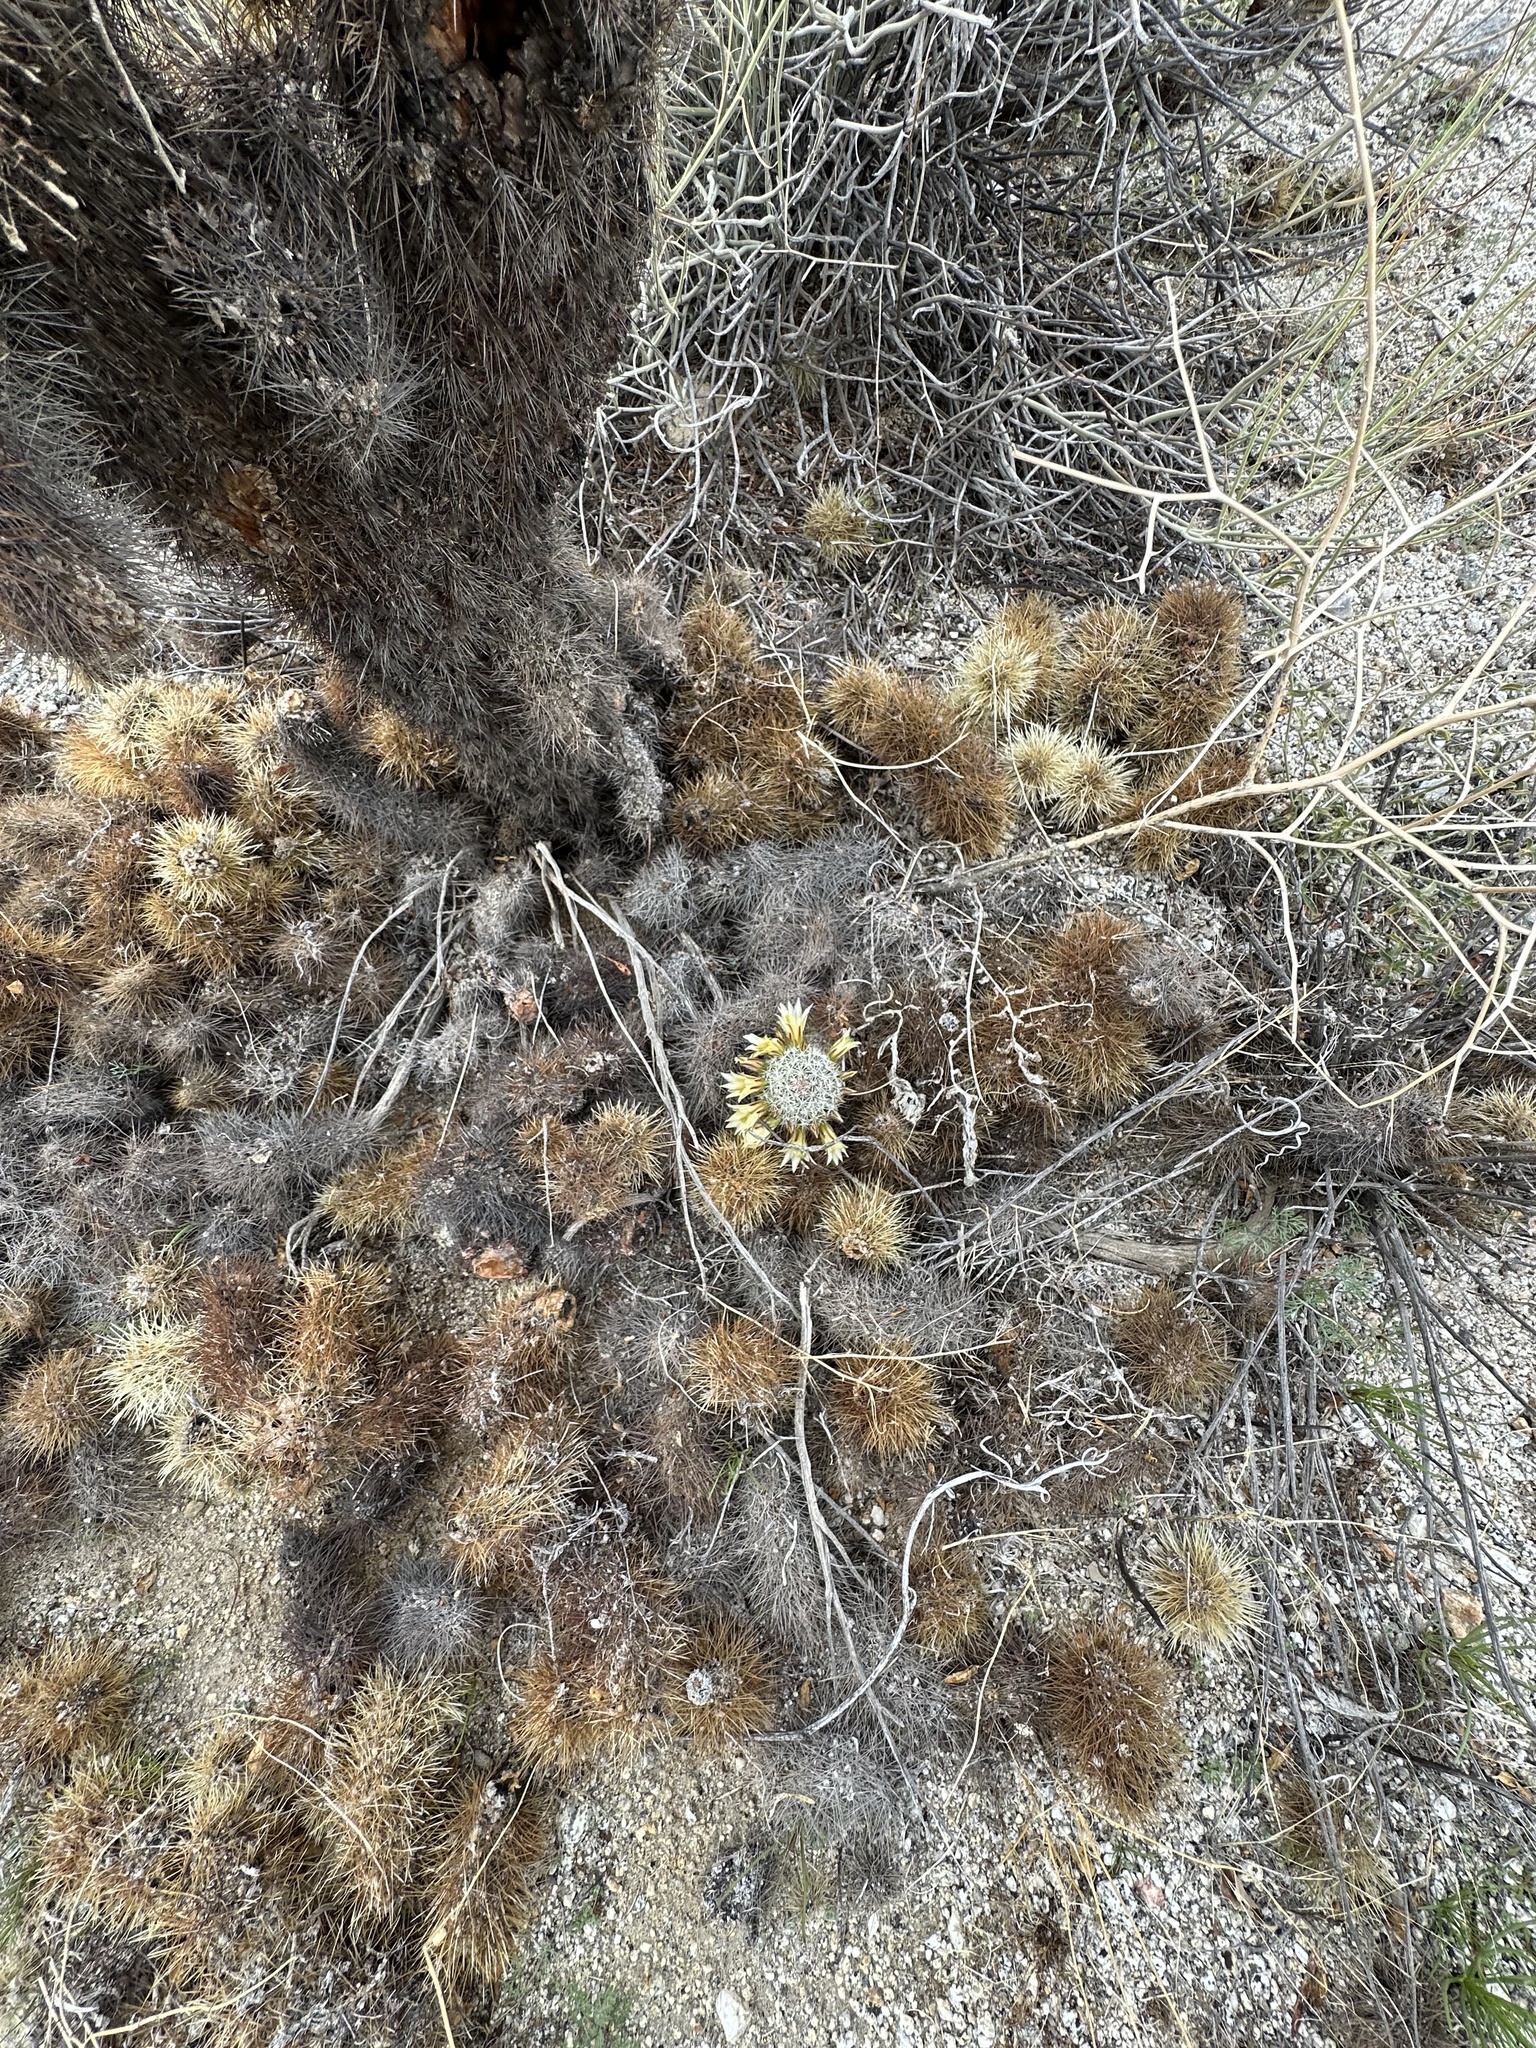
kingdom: Plantae
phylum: Tracheophyta
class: Magnoliopsida
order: Caryophyllales
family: Cactaceae
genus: Cochemiea
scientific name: Cochemiea dioica
